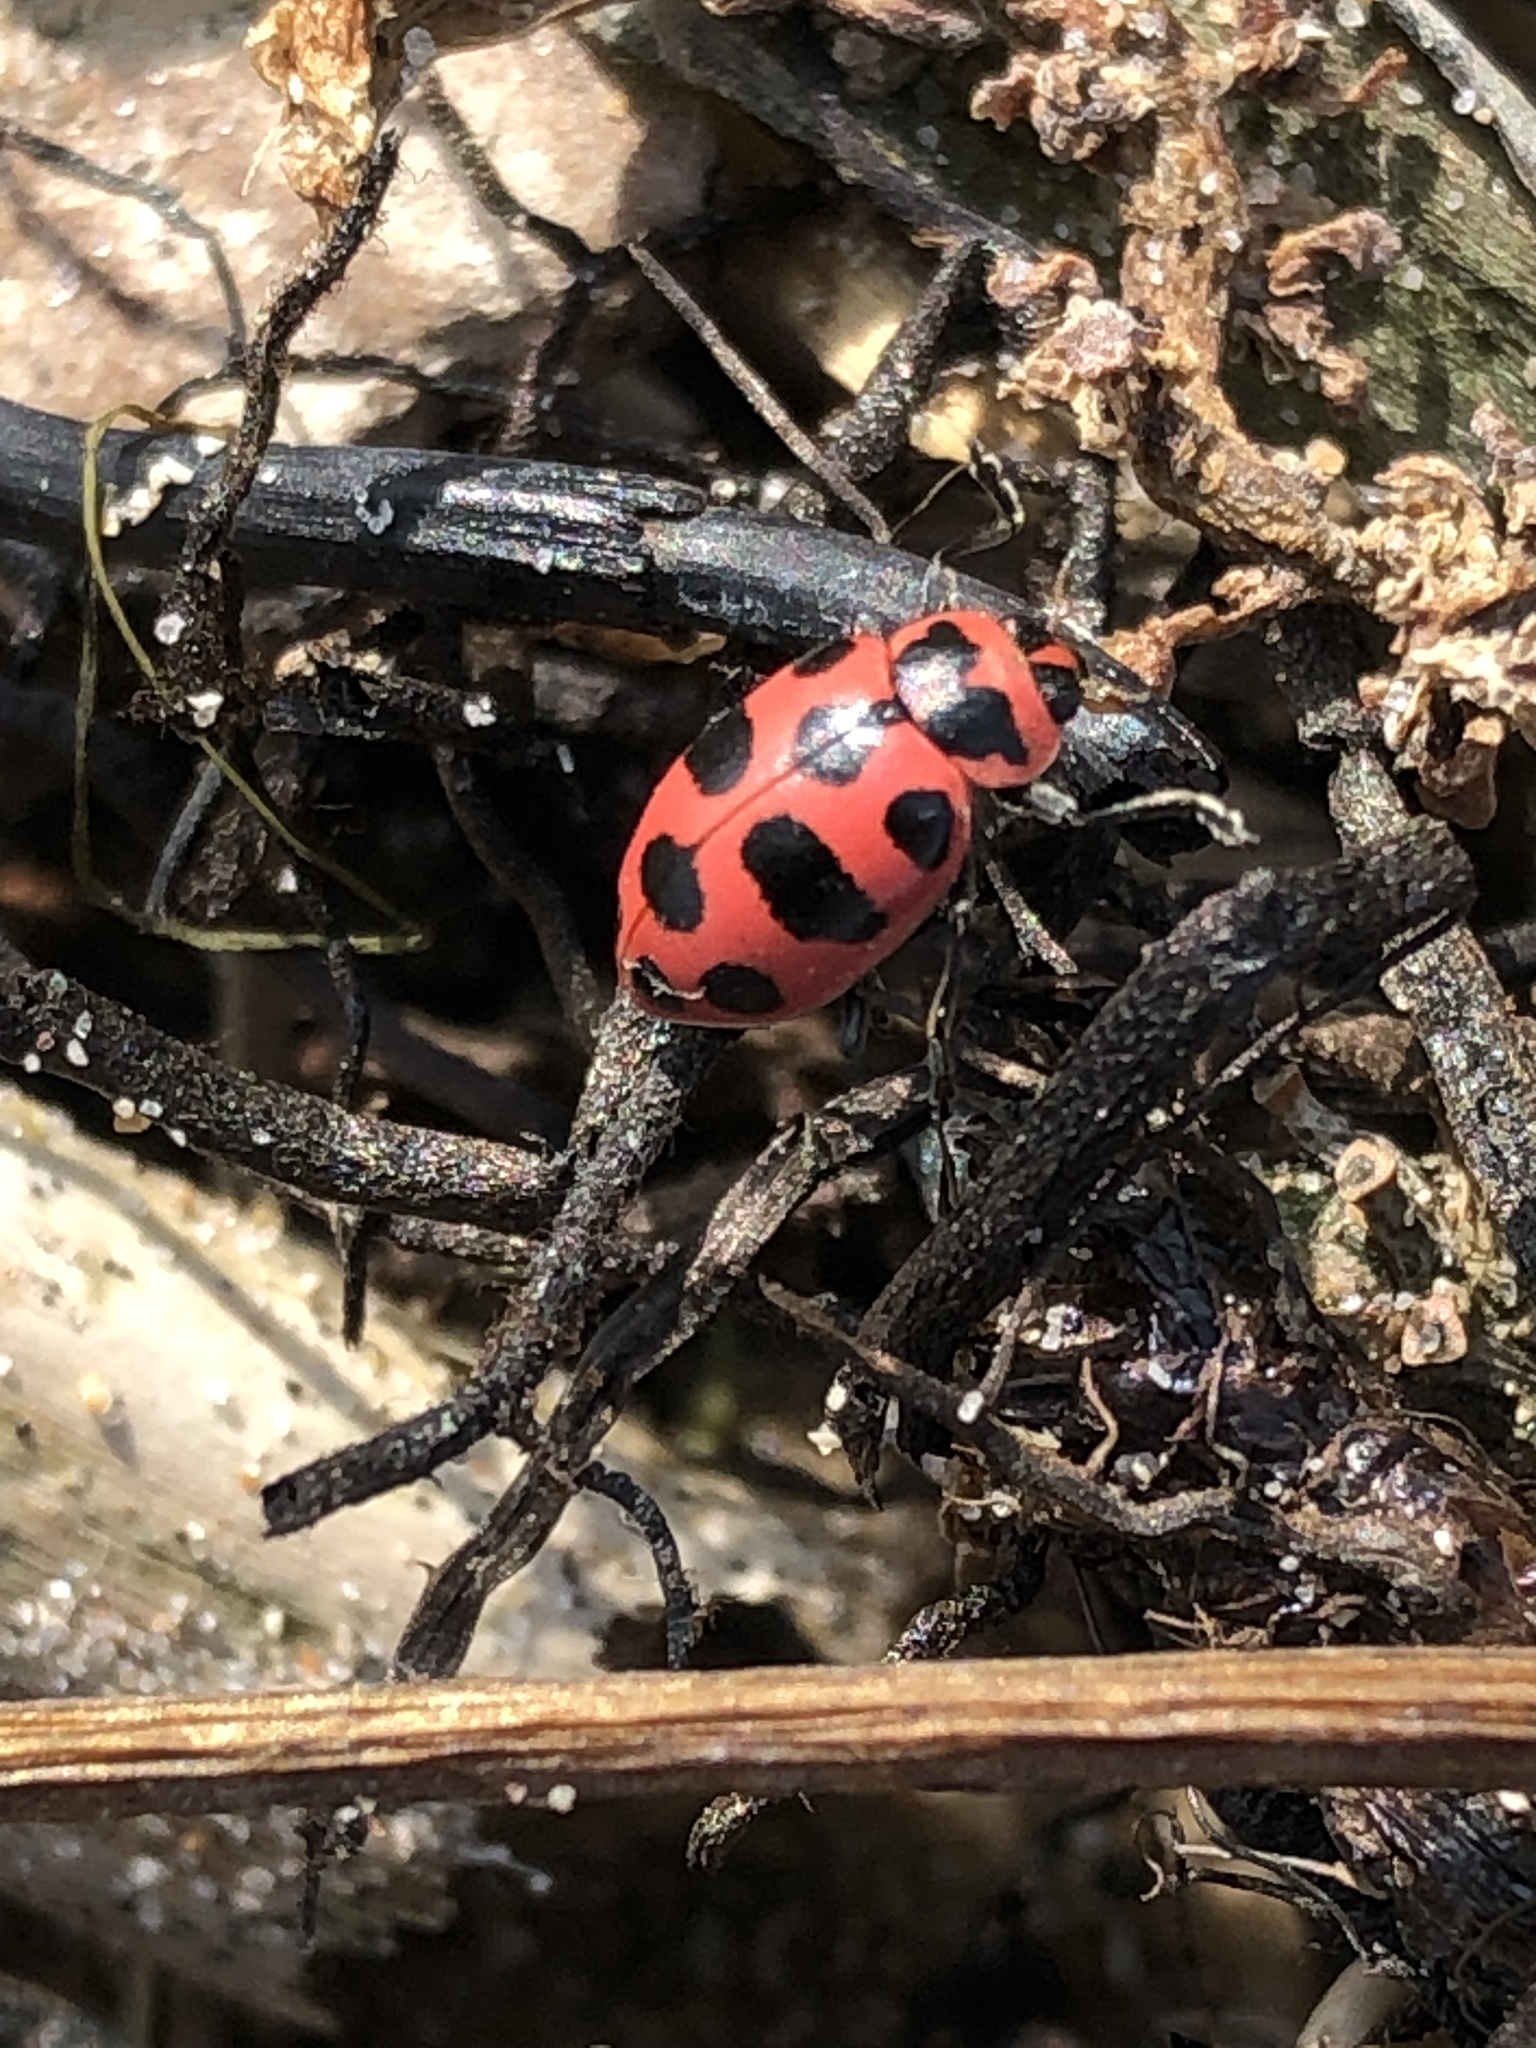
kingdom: Animalia
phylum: Arthropoda
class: Insecta
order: Coleoptera
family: Coccinellidae
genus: Coleomegilla
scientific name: Coleomegilla maculata
